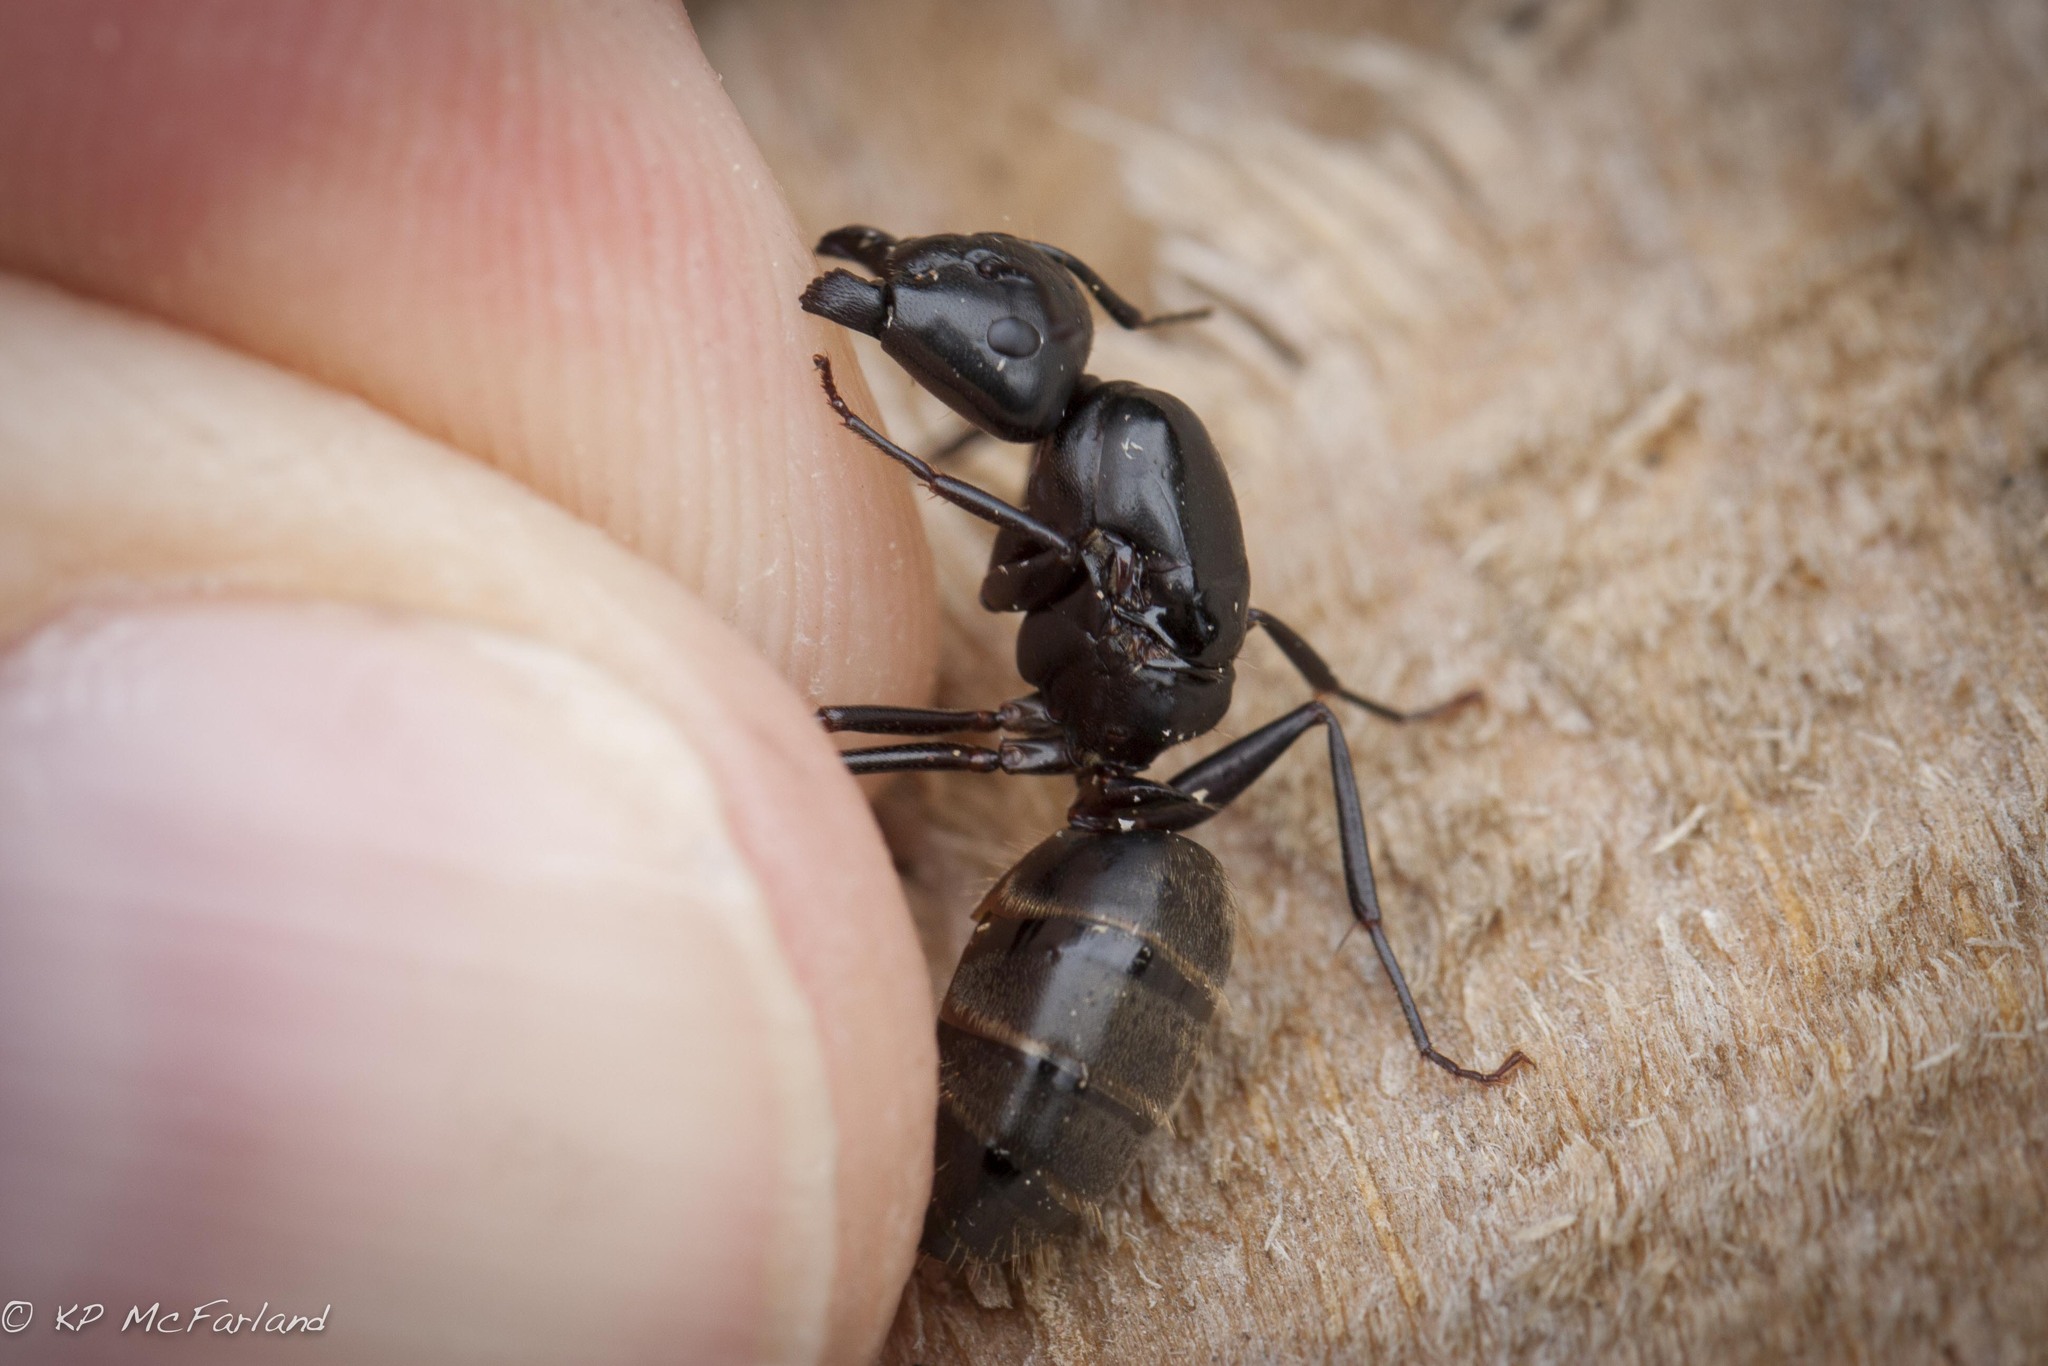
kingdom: Animalia
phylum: Arthropoda
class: Insecta
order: Hymenoptera
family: Formicidae
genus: Camponotus
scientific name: Camponotus pennsylvanicus
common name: Black carpenter ant
